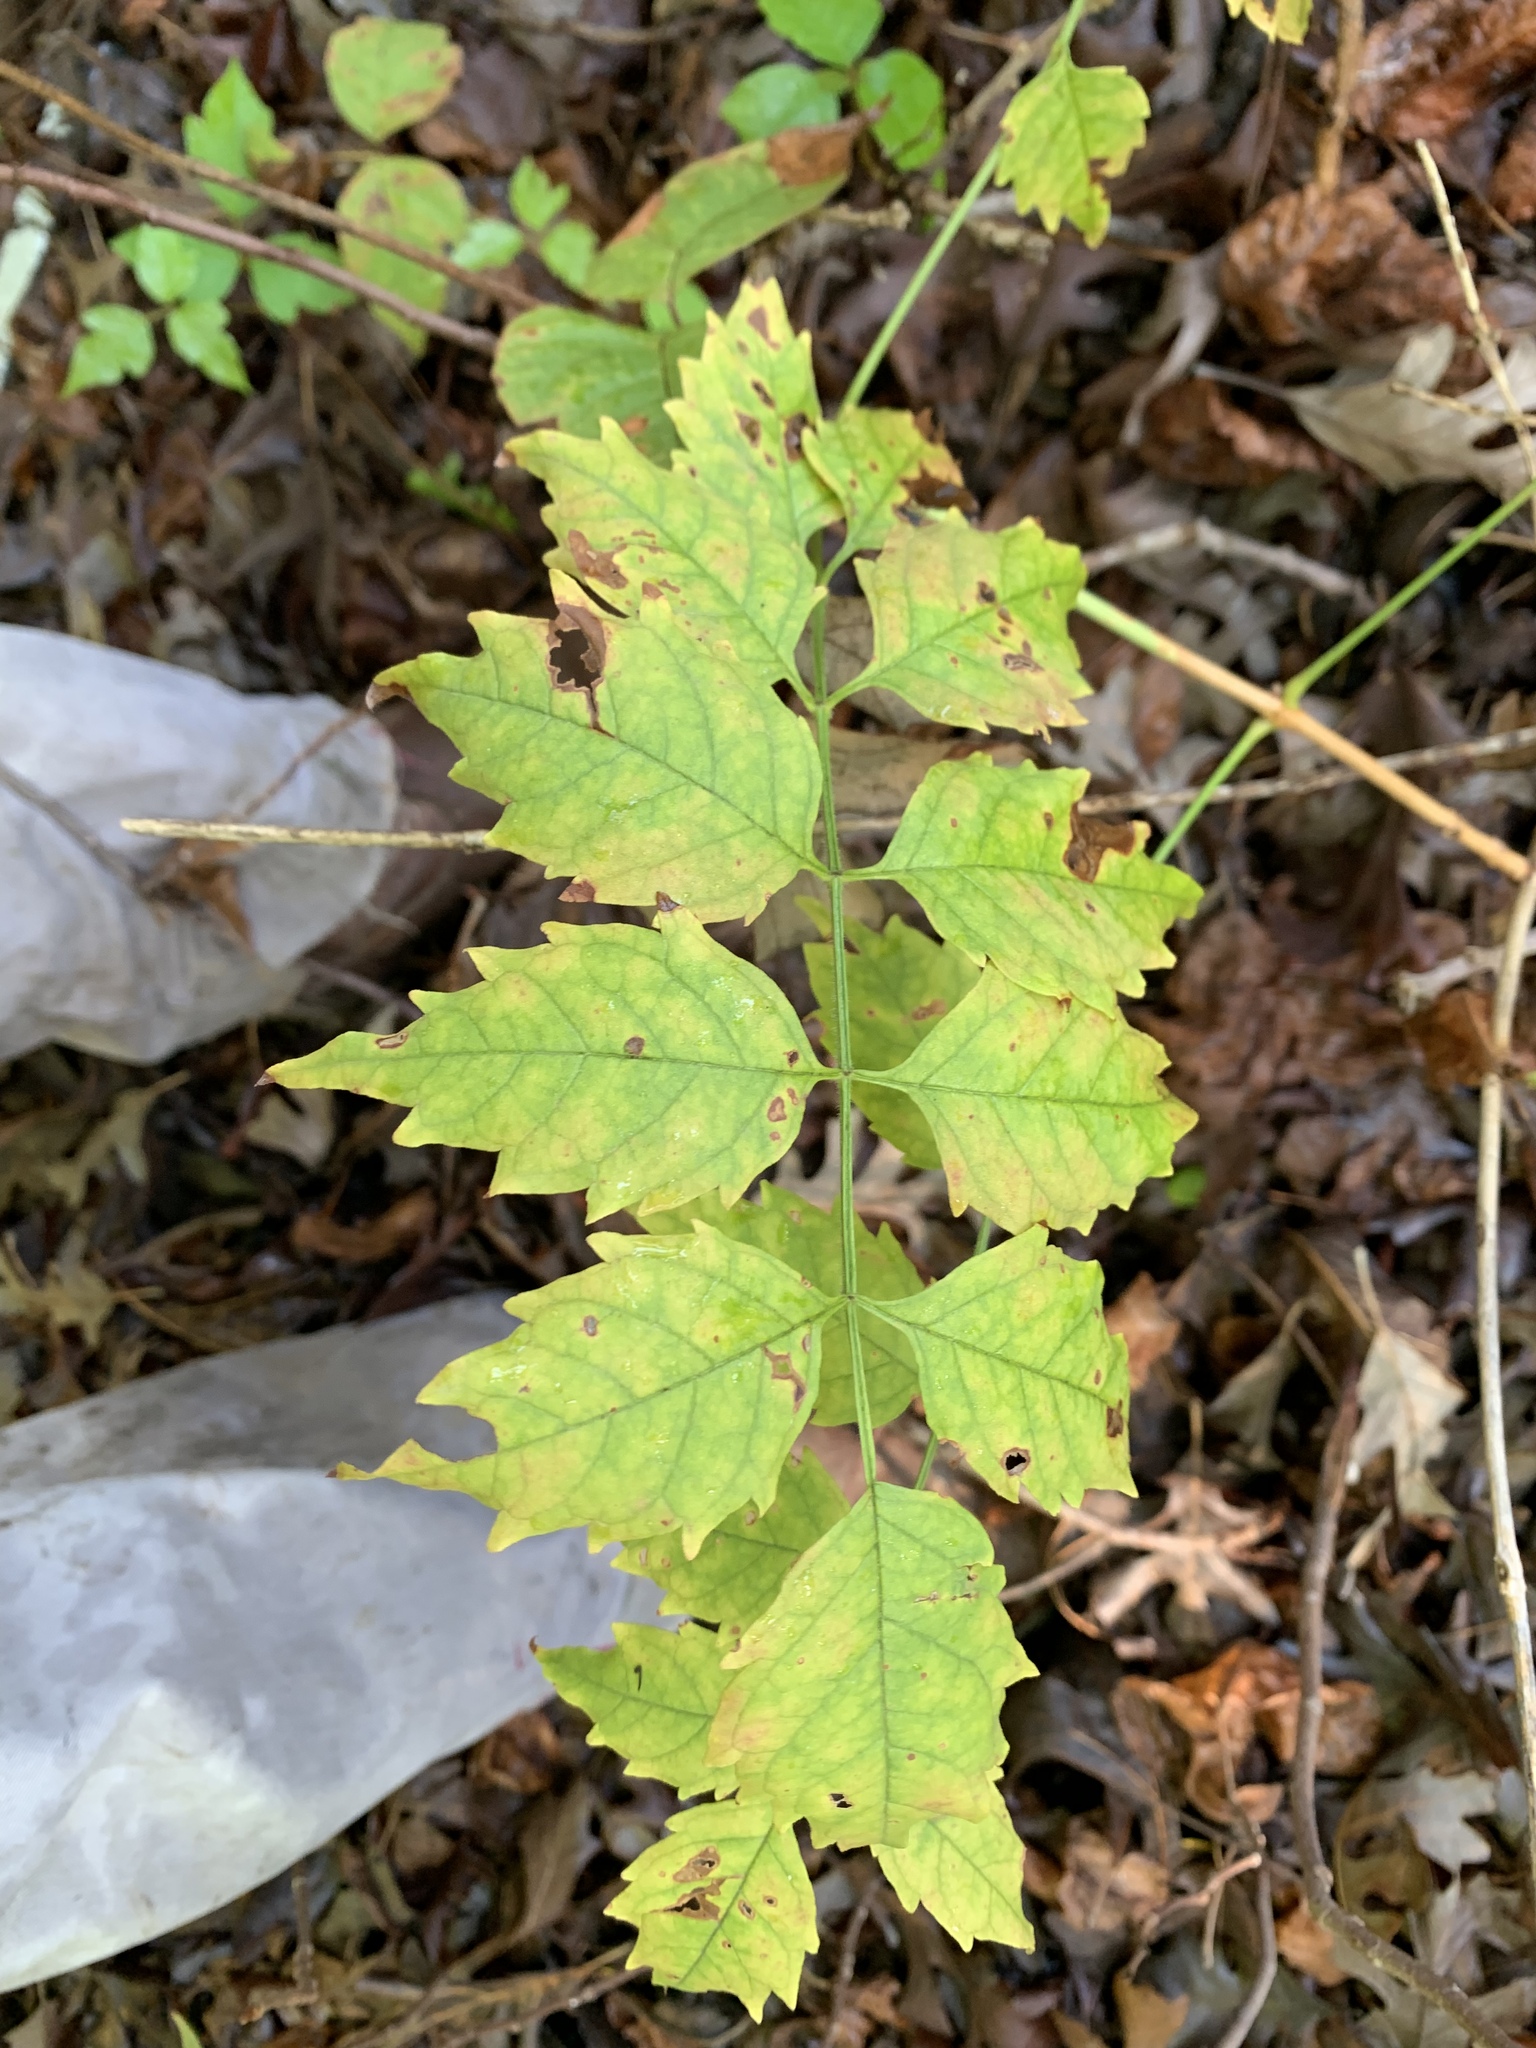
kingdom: Plantae
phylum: Tracheophyta
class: Magnoliopsida
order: Lamiales
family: Bignoniaceae
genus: Campsis
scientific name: Campsis radicans
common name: Trumpet-creeper
